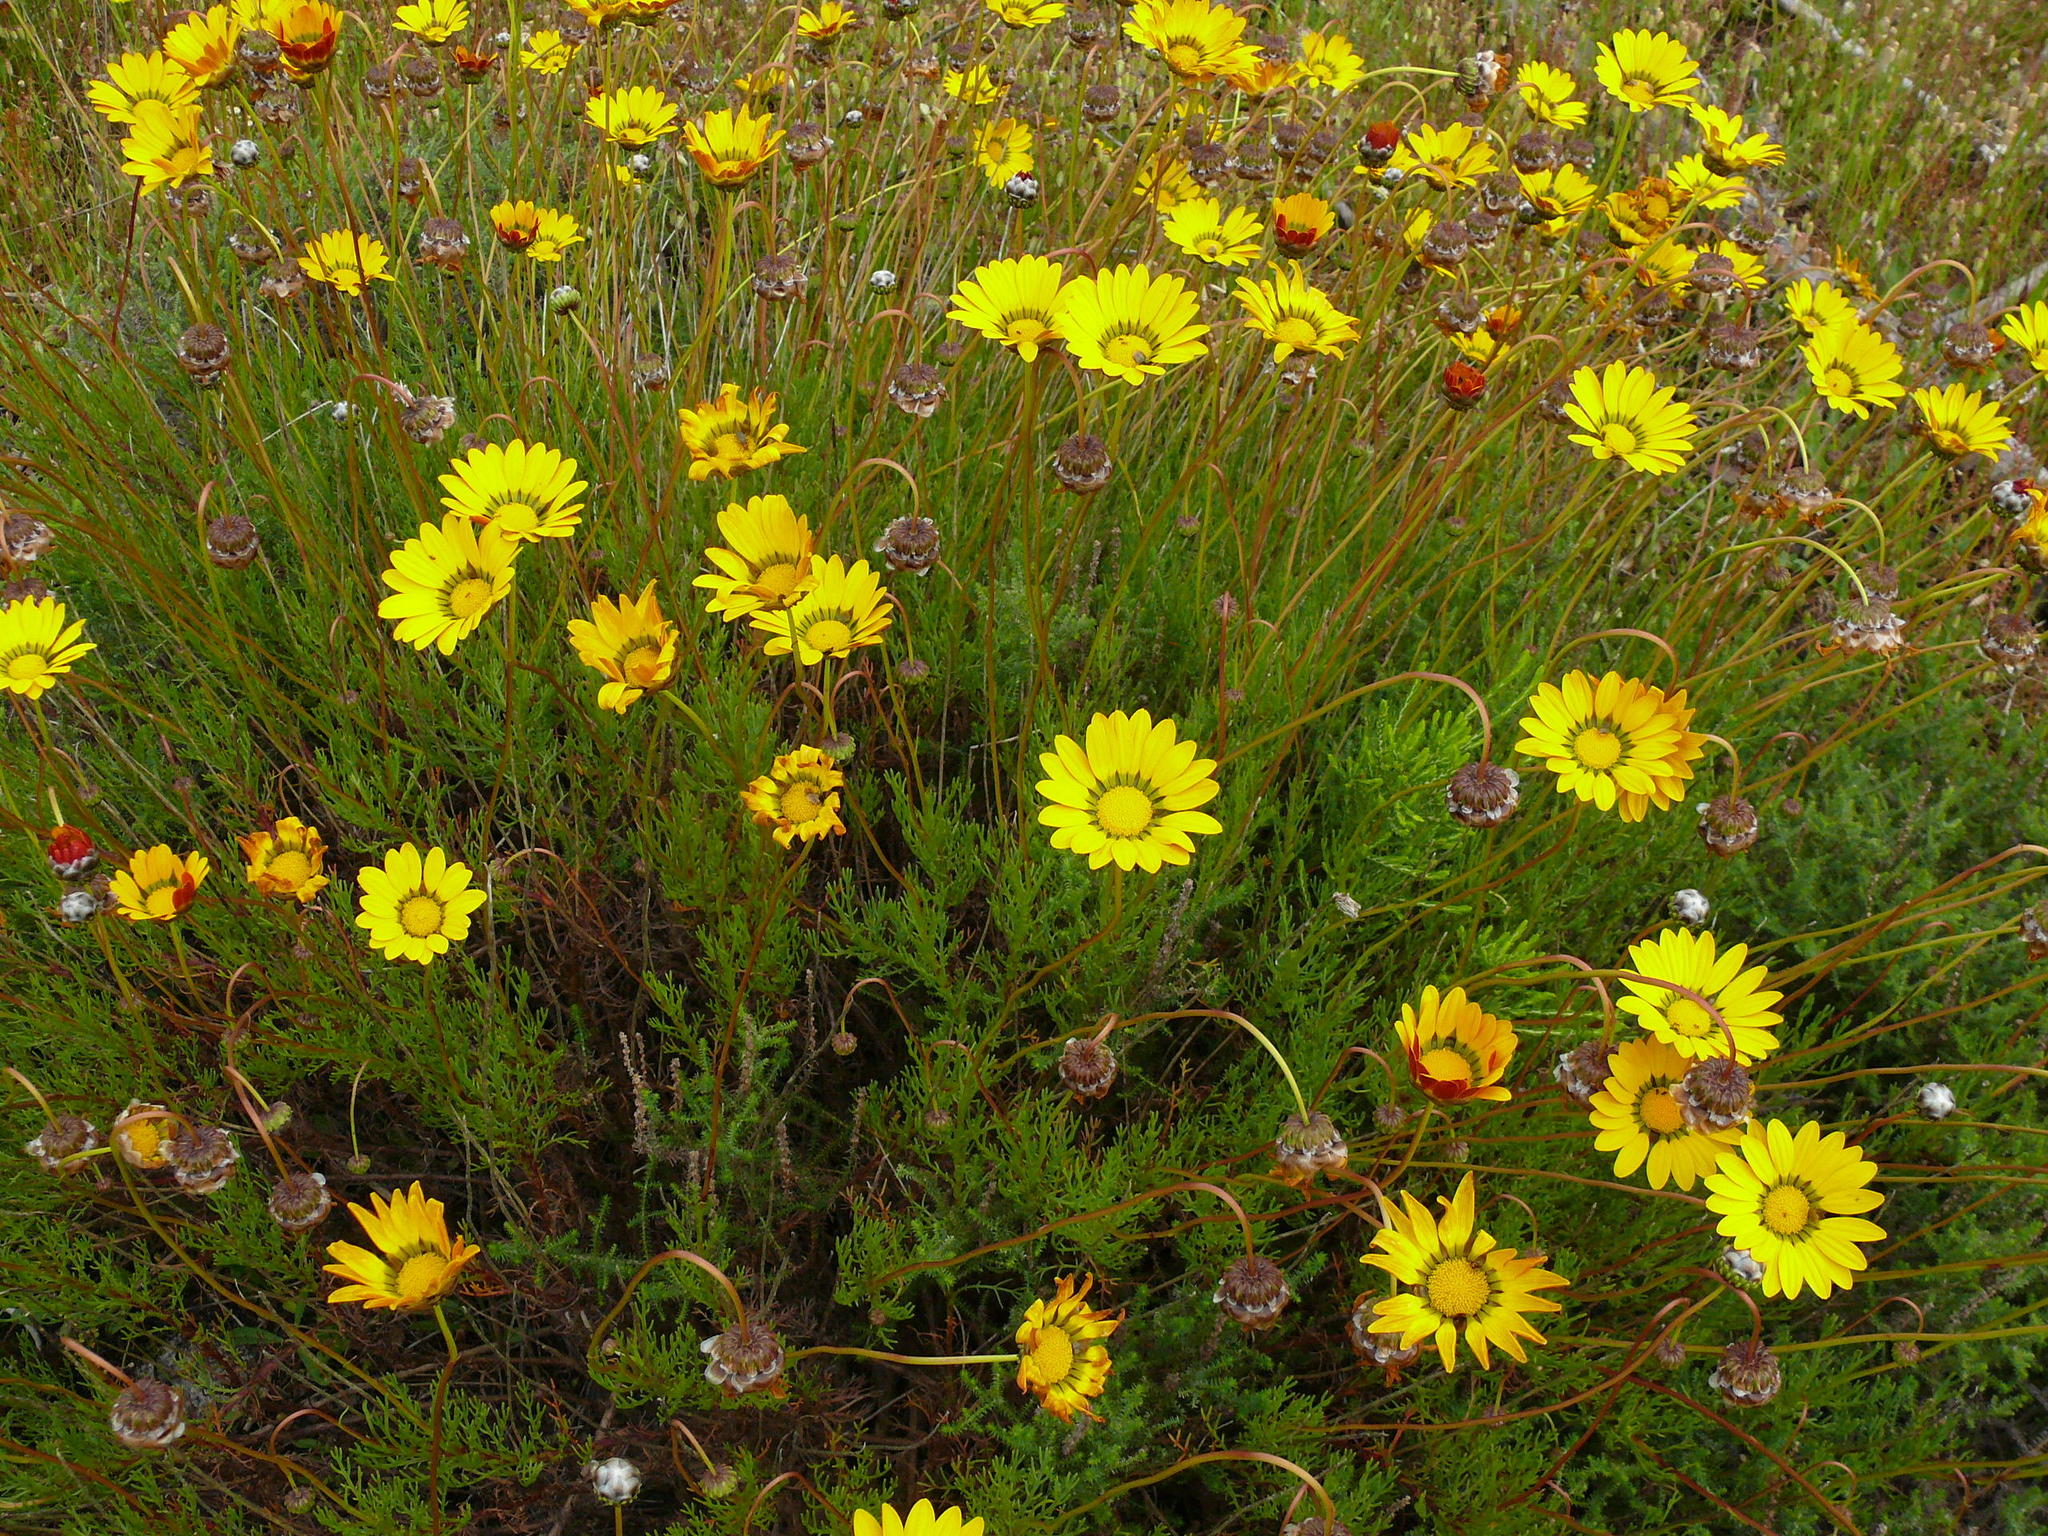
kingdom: Plantae
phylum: Tracheophyta
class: Magnoliopsida
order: Asterales
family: Asteraceae
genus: Ursinia
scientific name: Ursinia paleacea
